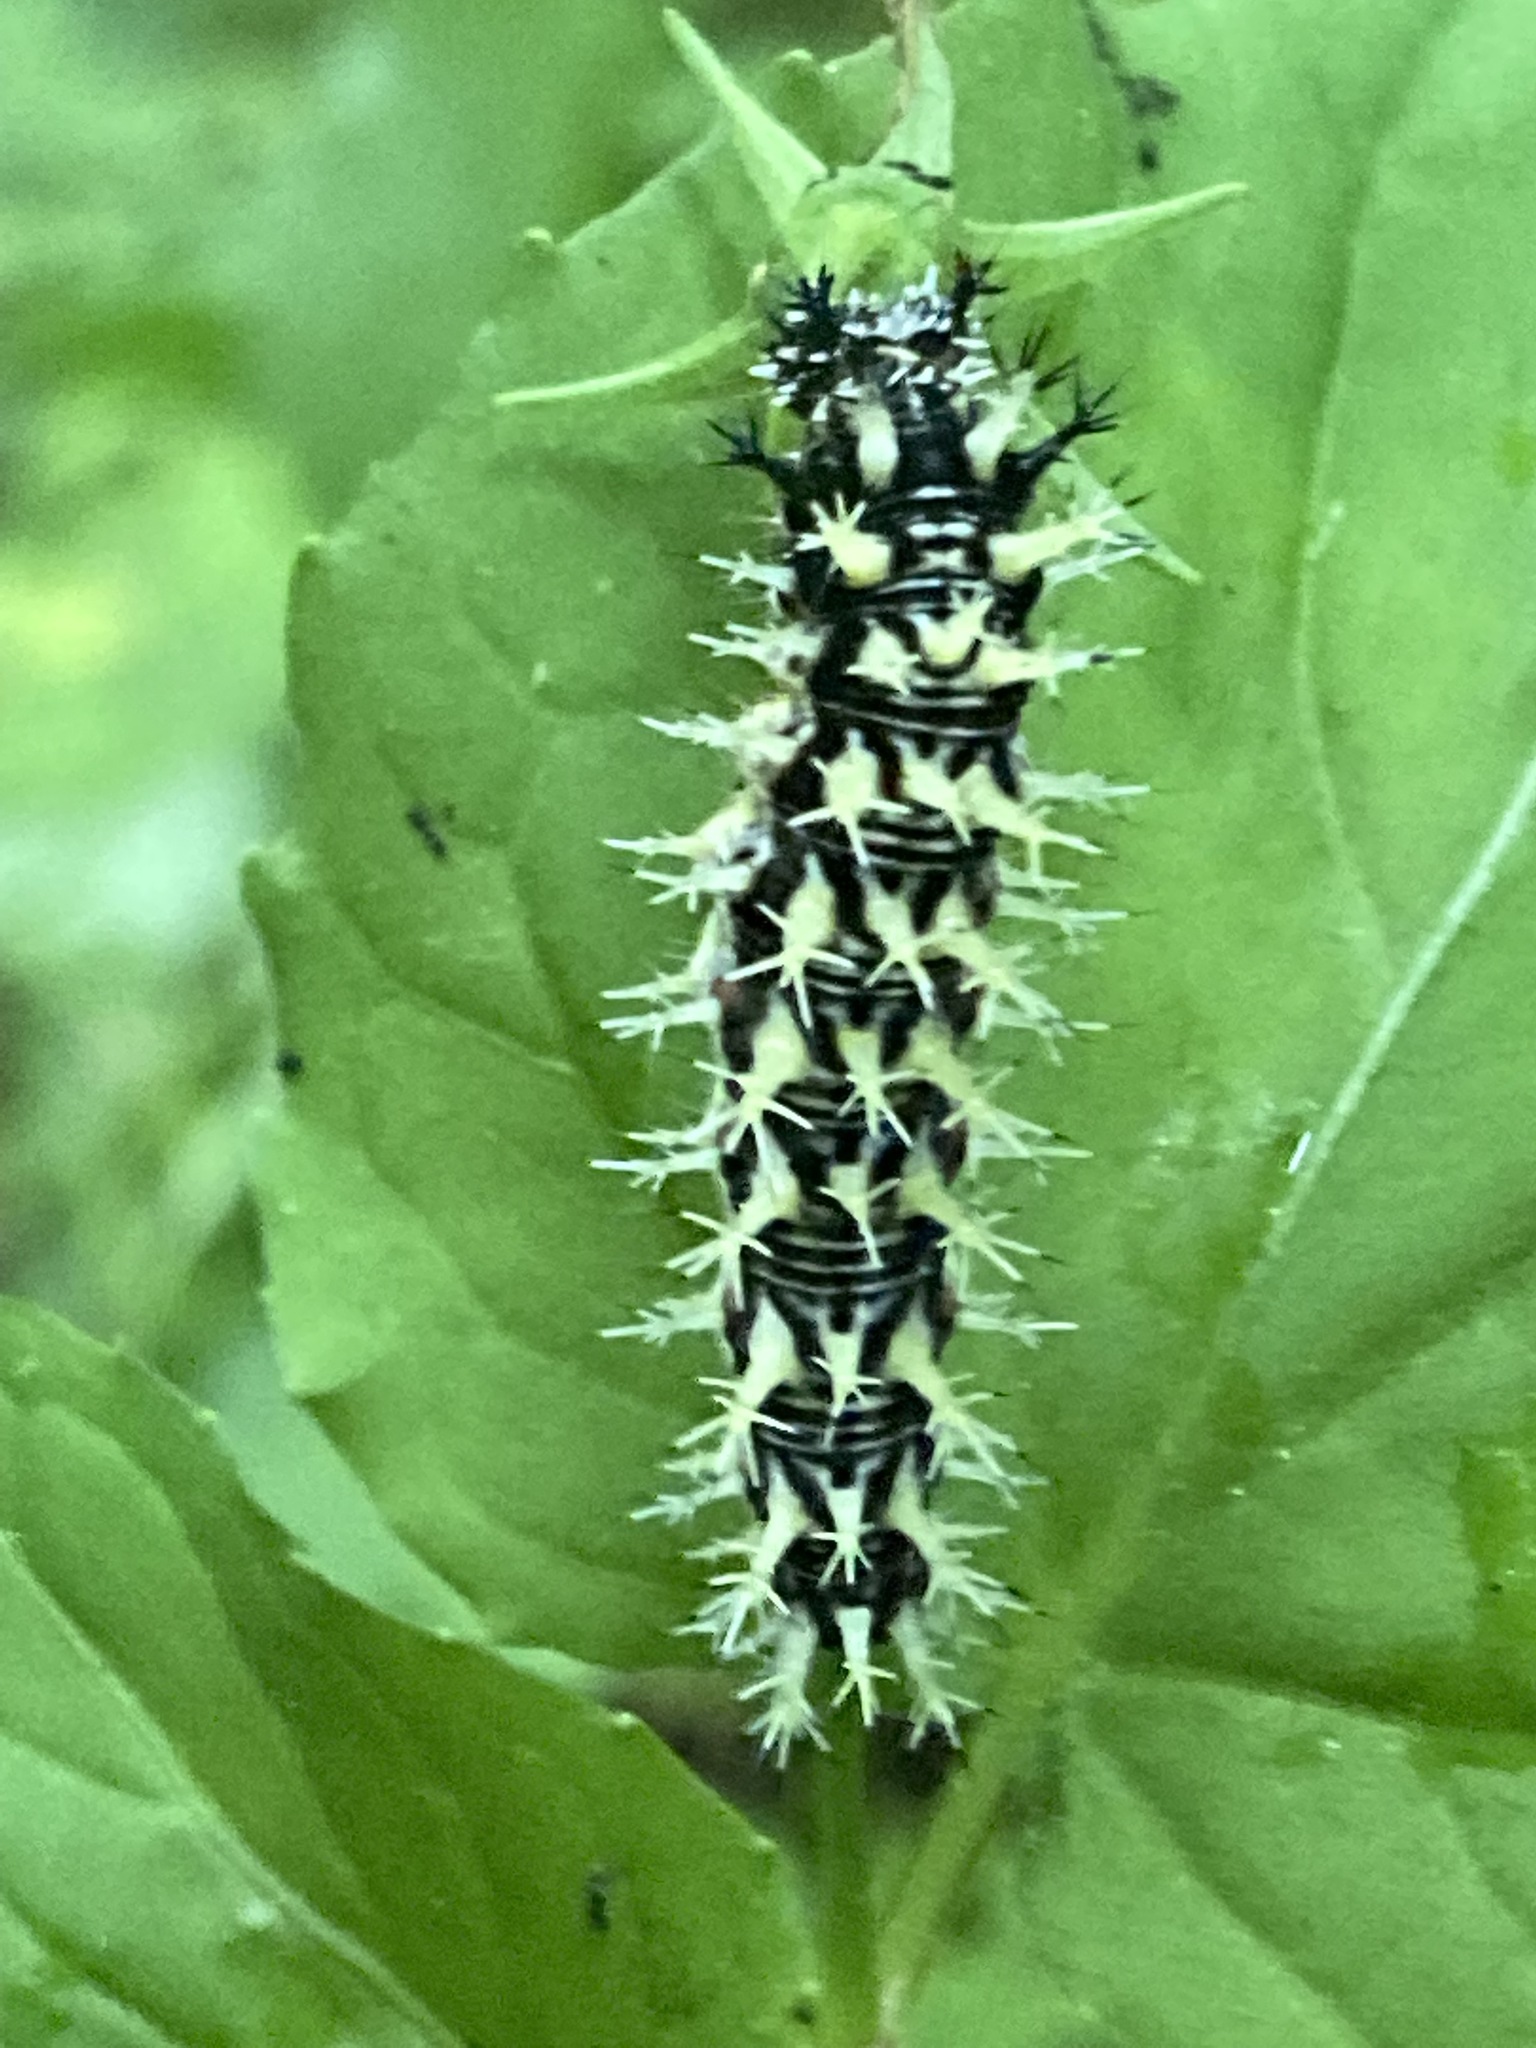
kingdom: Animalia
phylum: Arthropoda
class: Insecta
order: Lepidoptera
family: Nymphalidae
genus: Polygonia
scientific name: Polygonia comma
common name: Eastern comma
